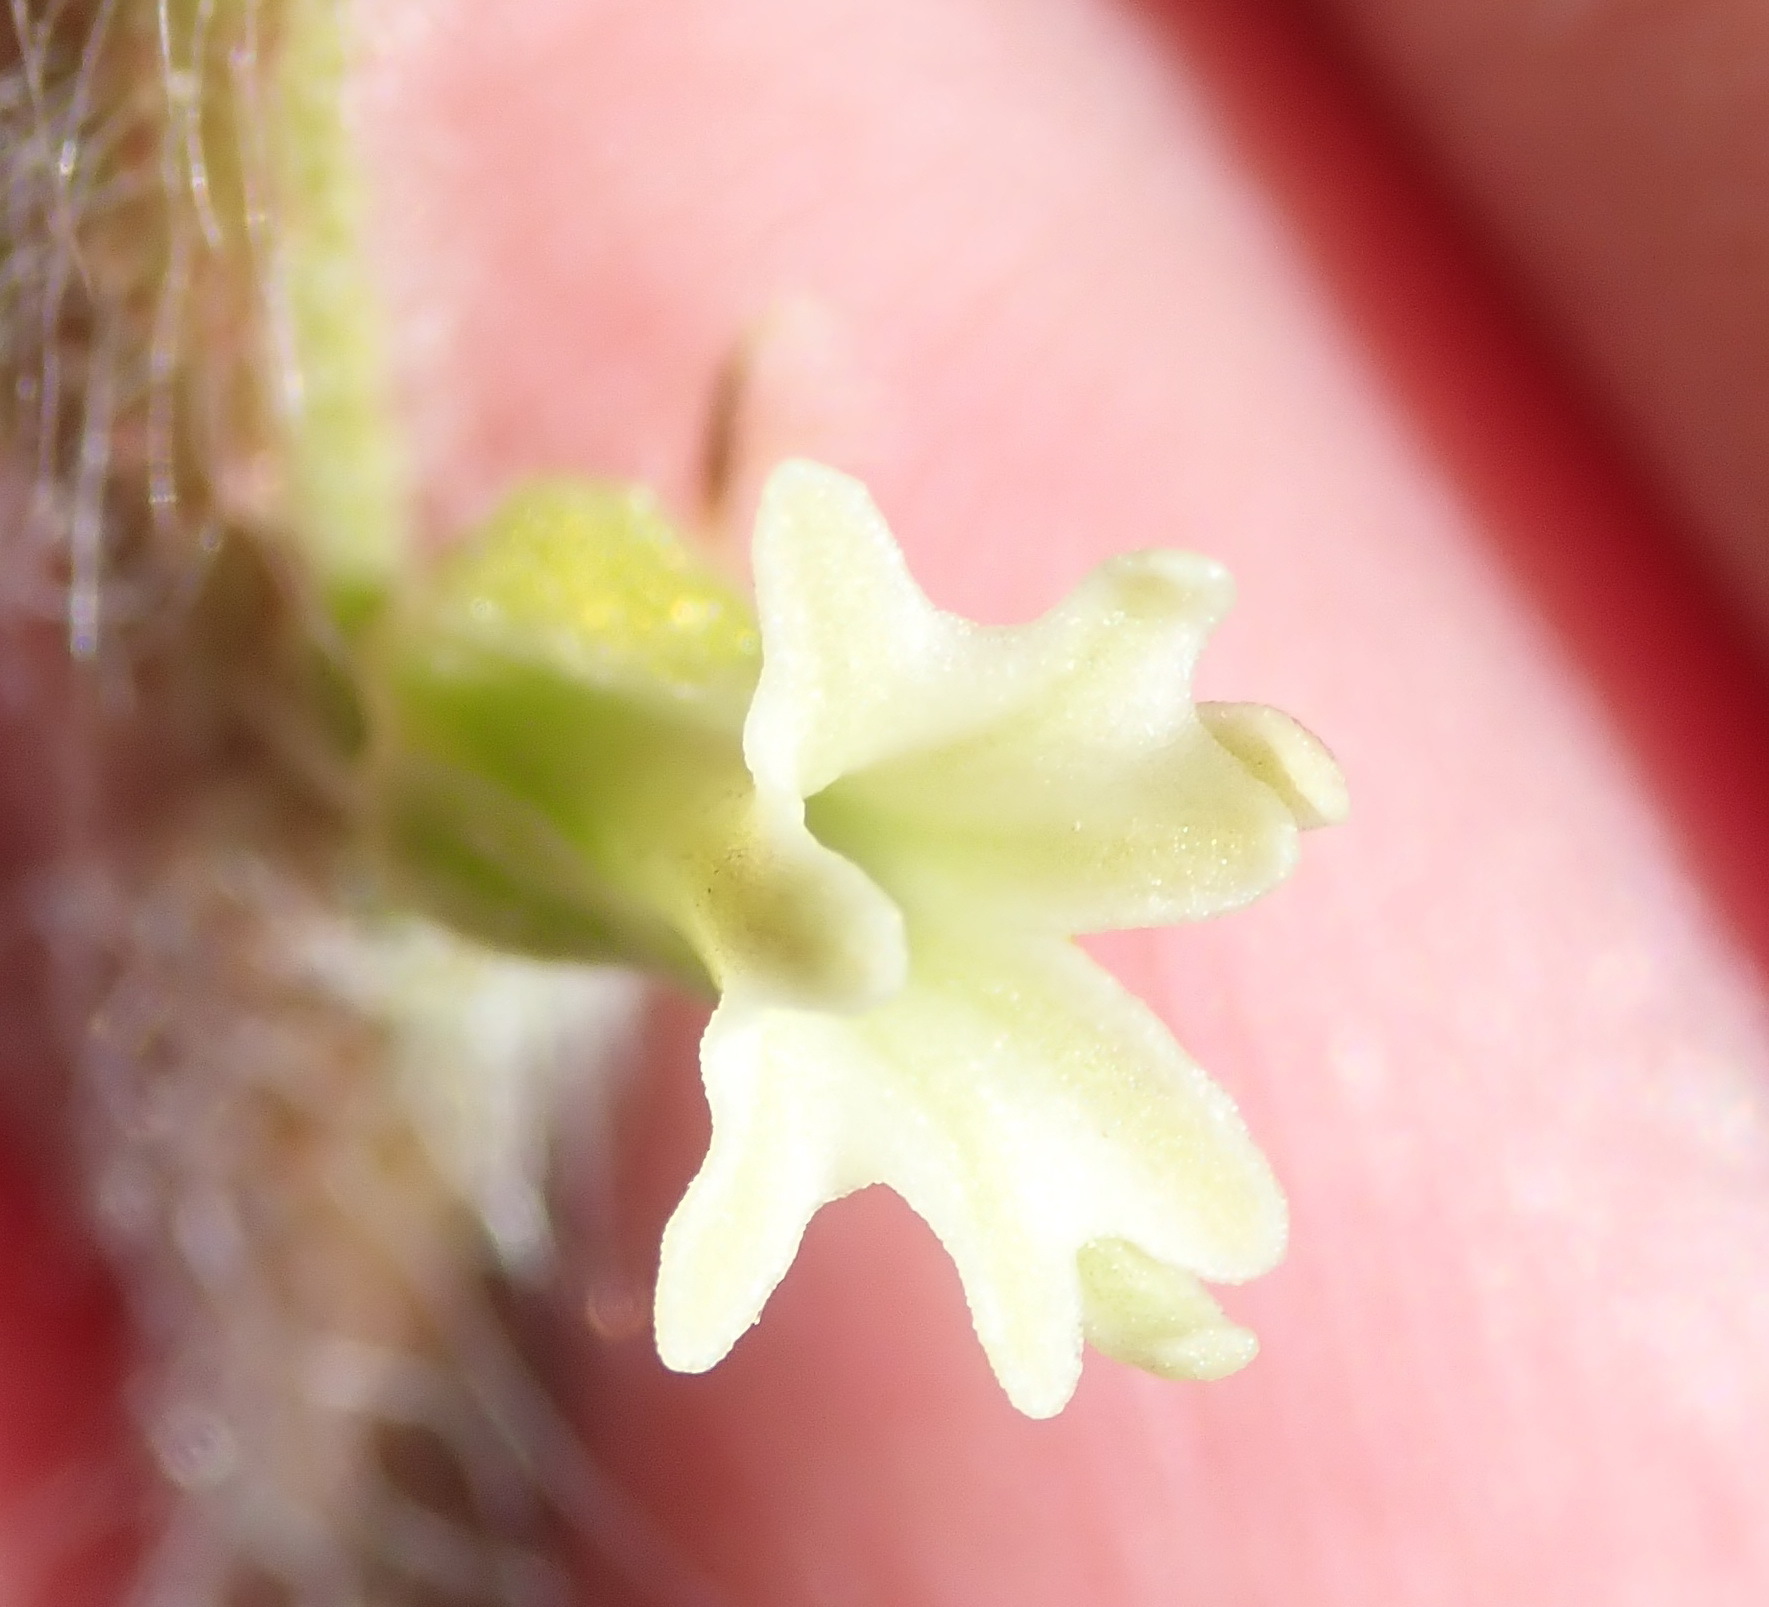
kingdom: Plantae
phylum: Tracheophyta
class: Liliopsida
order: Asparagales
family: Orchidaceae
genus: Holothrix
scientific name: Holothrix pilosa
